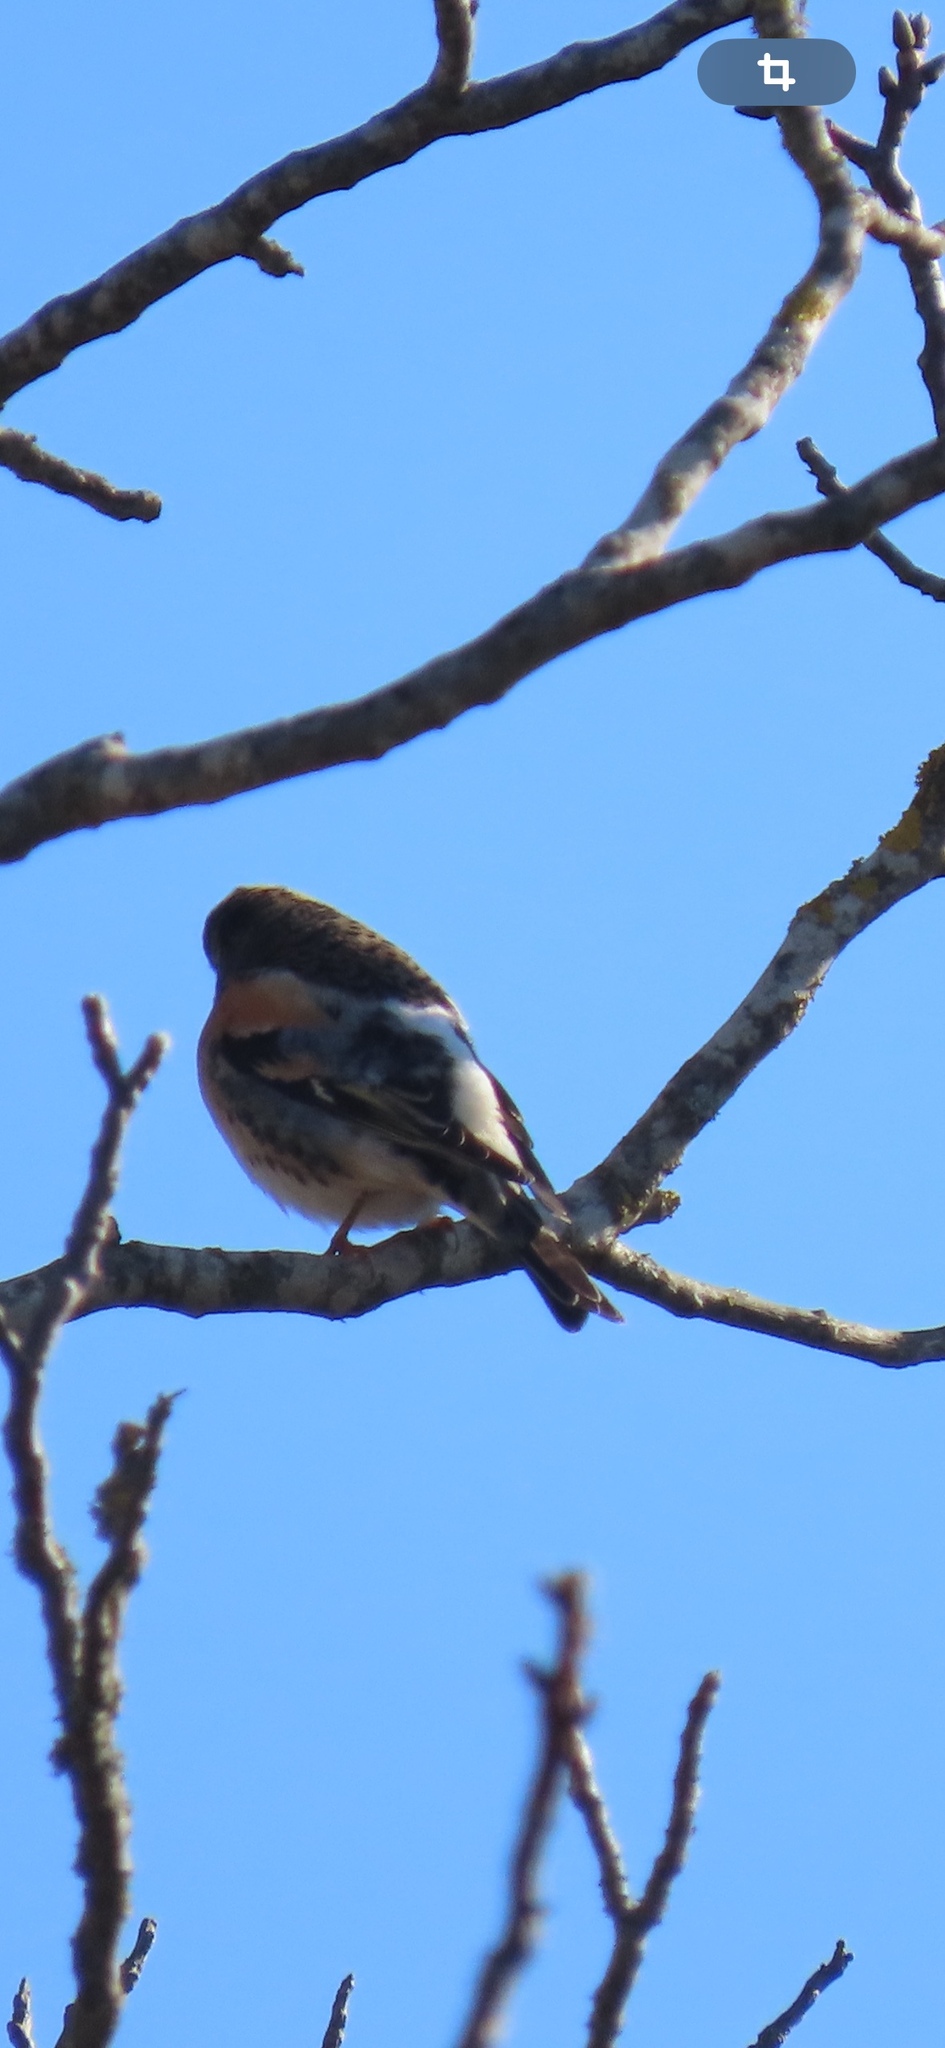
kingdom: Animalia
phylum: Chordata
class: Aves
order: Passeriformes
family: Fringillidae
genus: Fringilla
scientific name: Fringilla montifringilla
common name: Brambling
